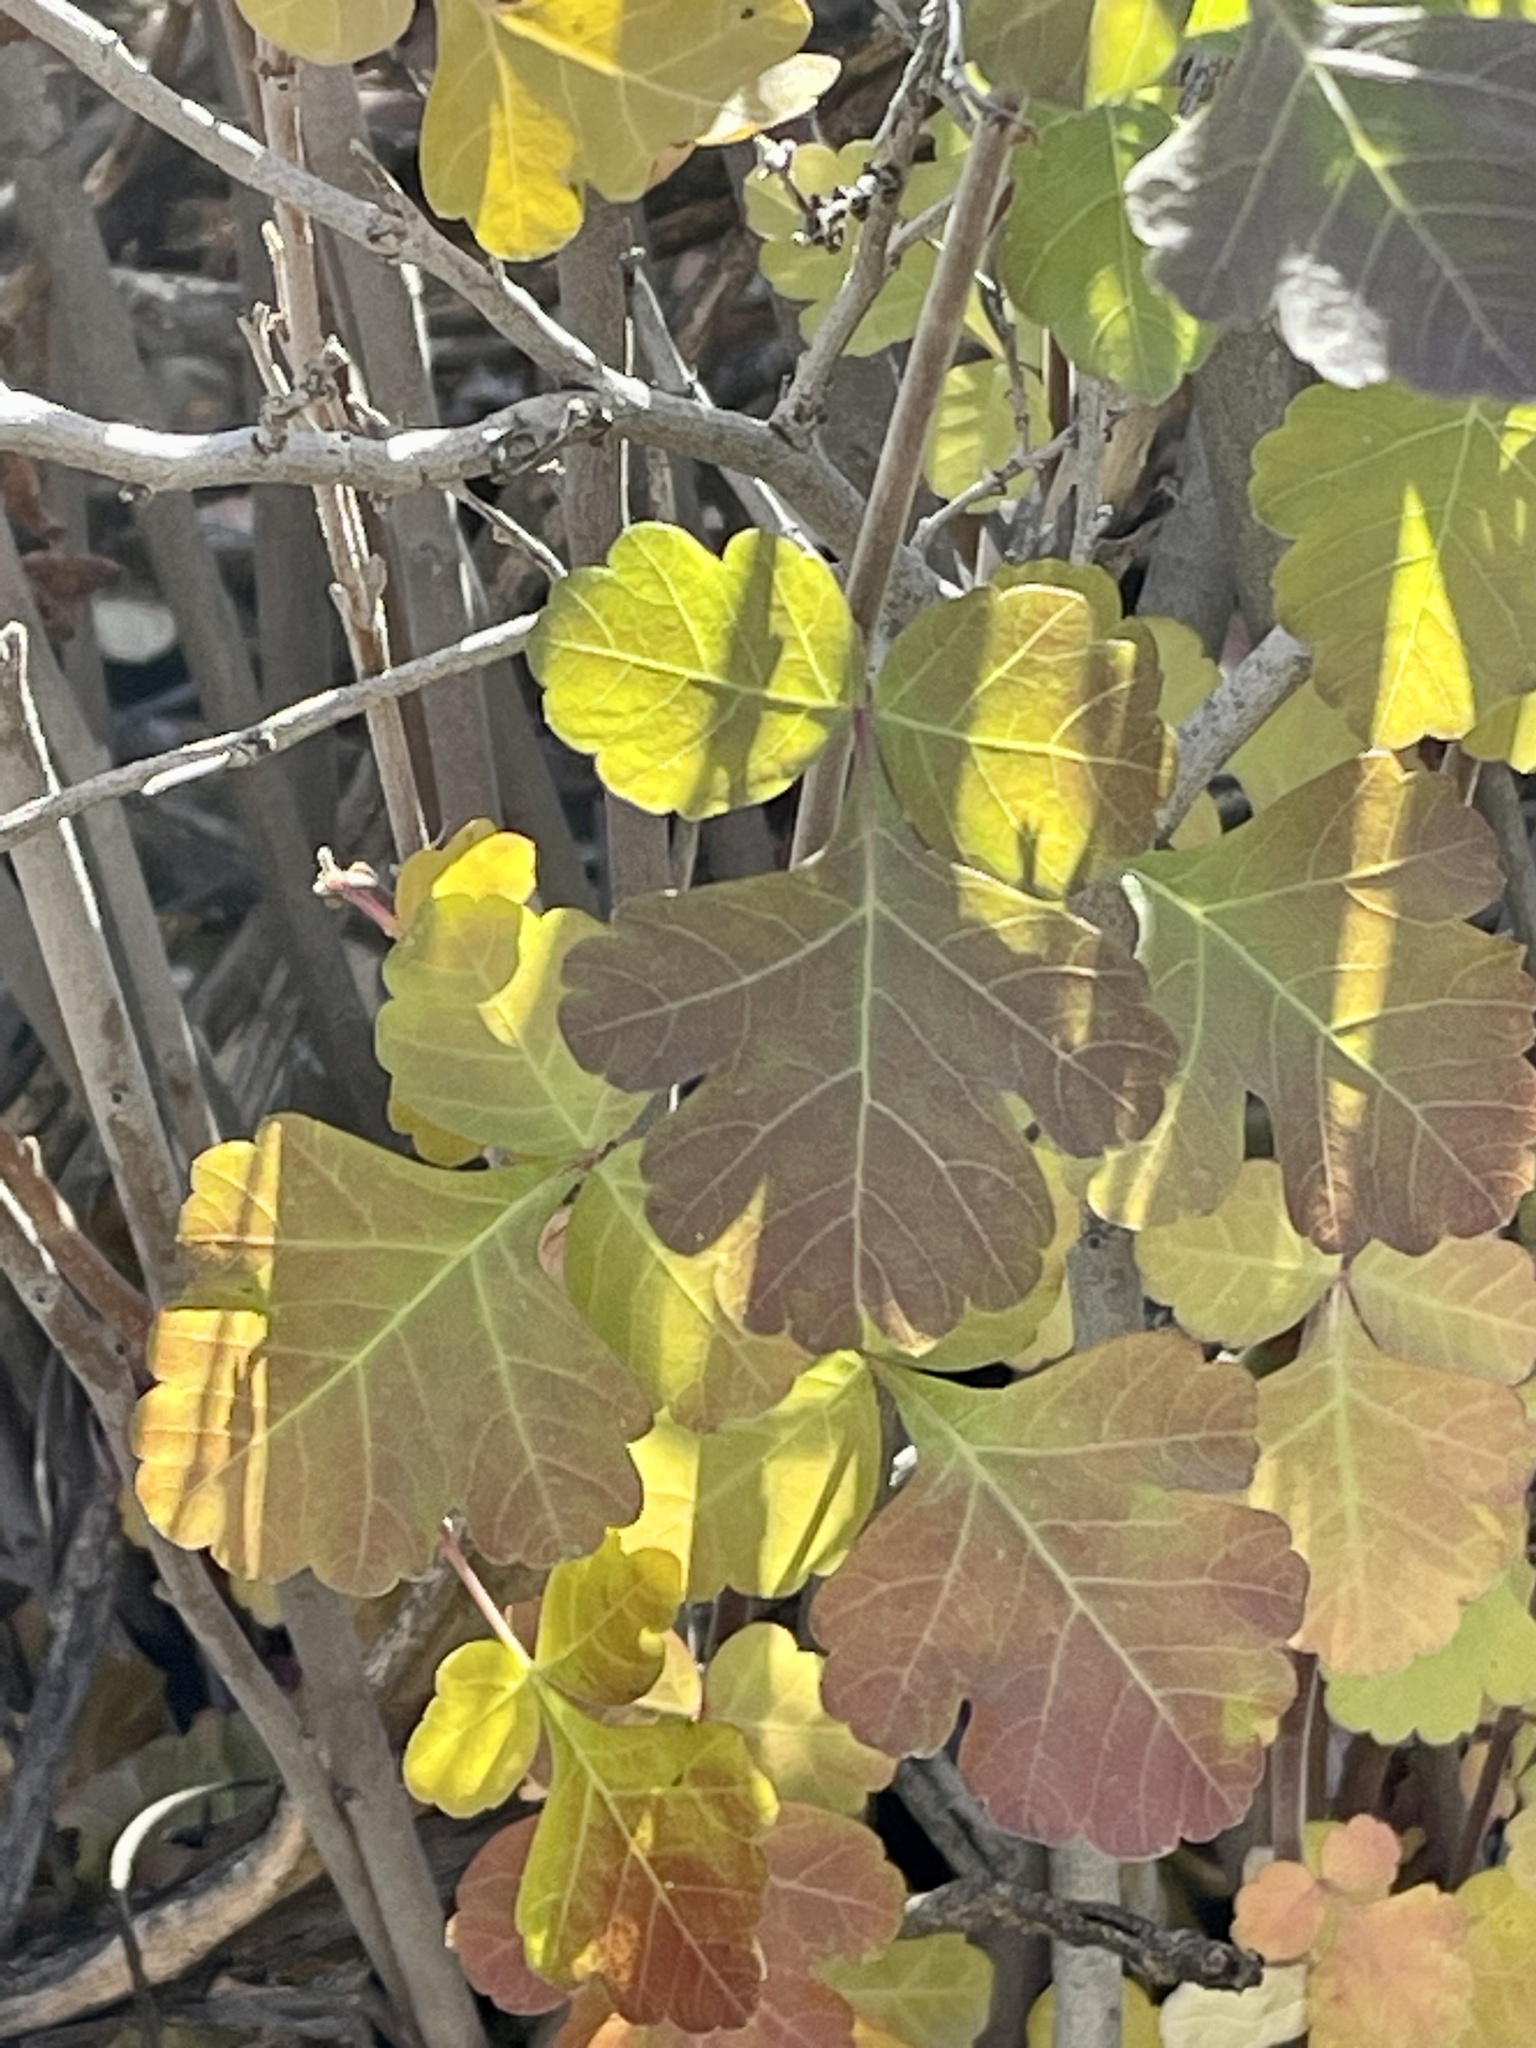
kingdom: Plantae
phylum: Tracheophyta
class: Magnoliopsida
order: Sapindales
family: Anacardiaceae
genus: Rhus
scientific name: Rhus aromatica
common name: Aromatic sumac
